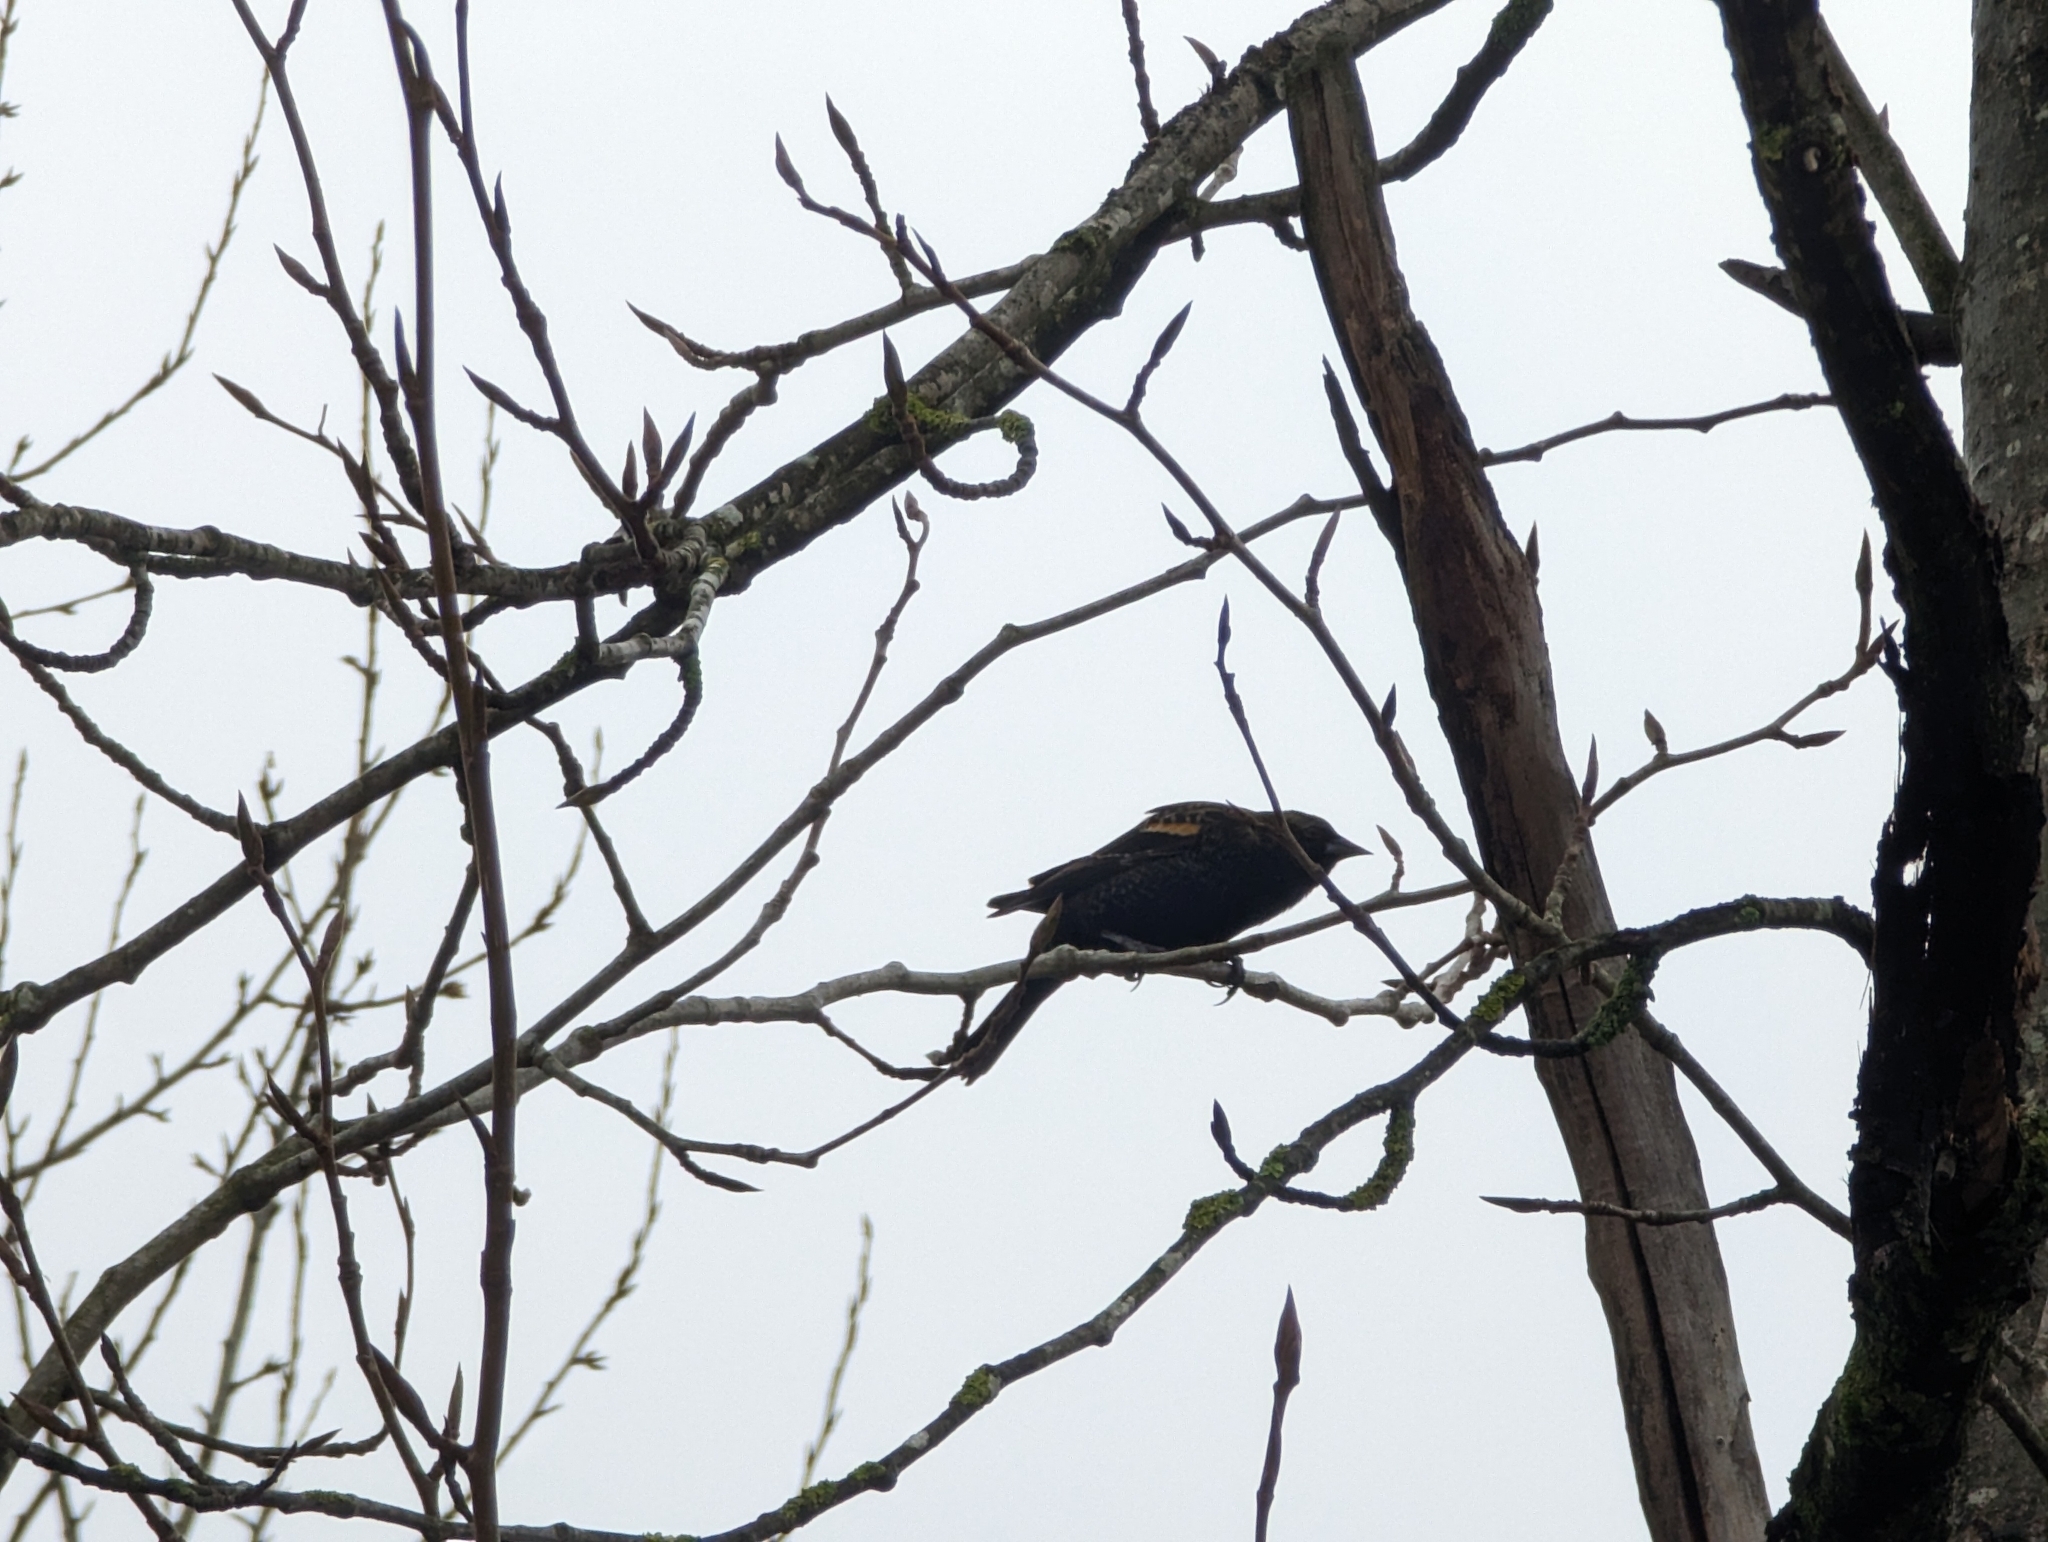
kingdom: Animalia
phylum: Chordata
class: Aves
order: Passeriformes
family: Icteridae
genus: Agelaius
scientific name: Agelaius phoeniceus
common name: Red-winged blackbird
